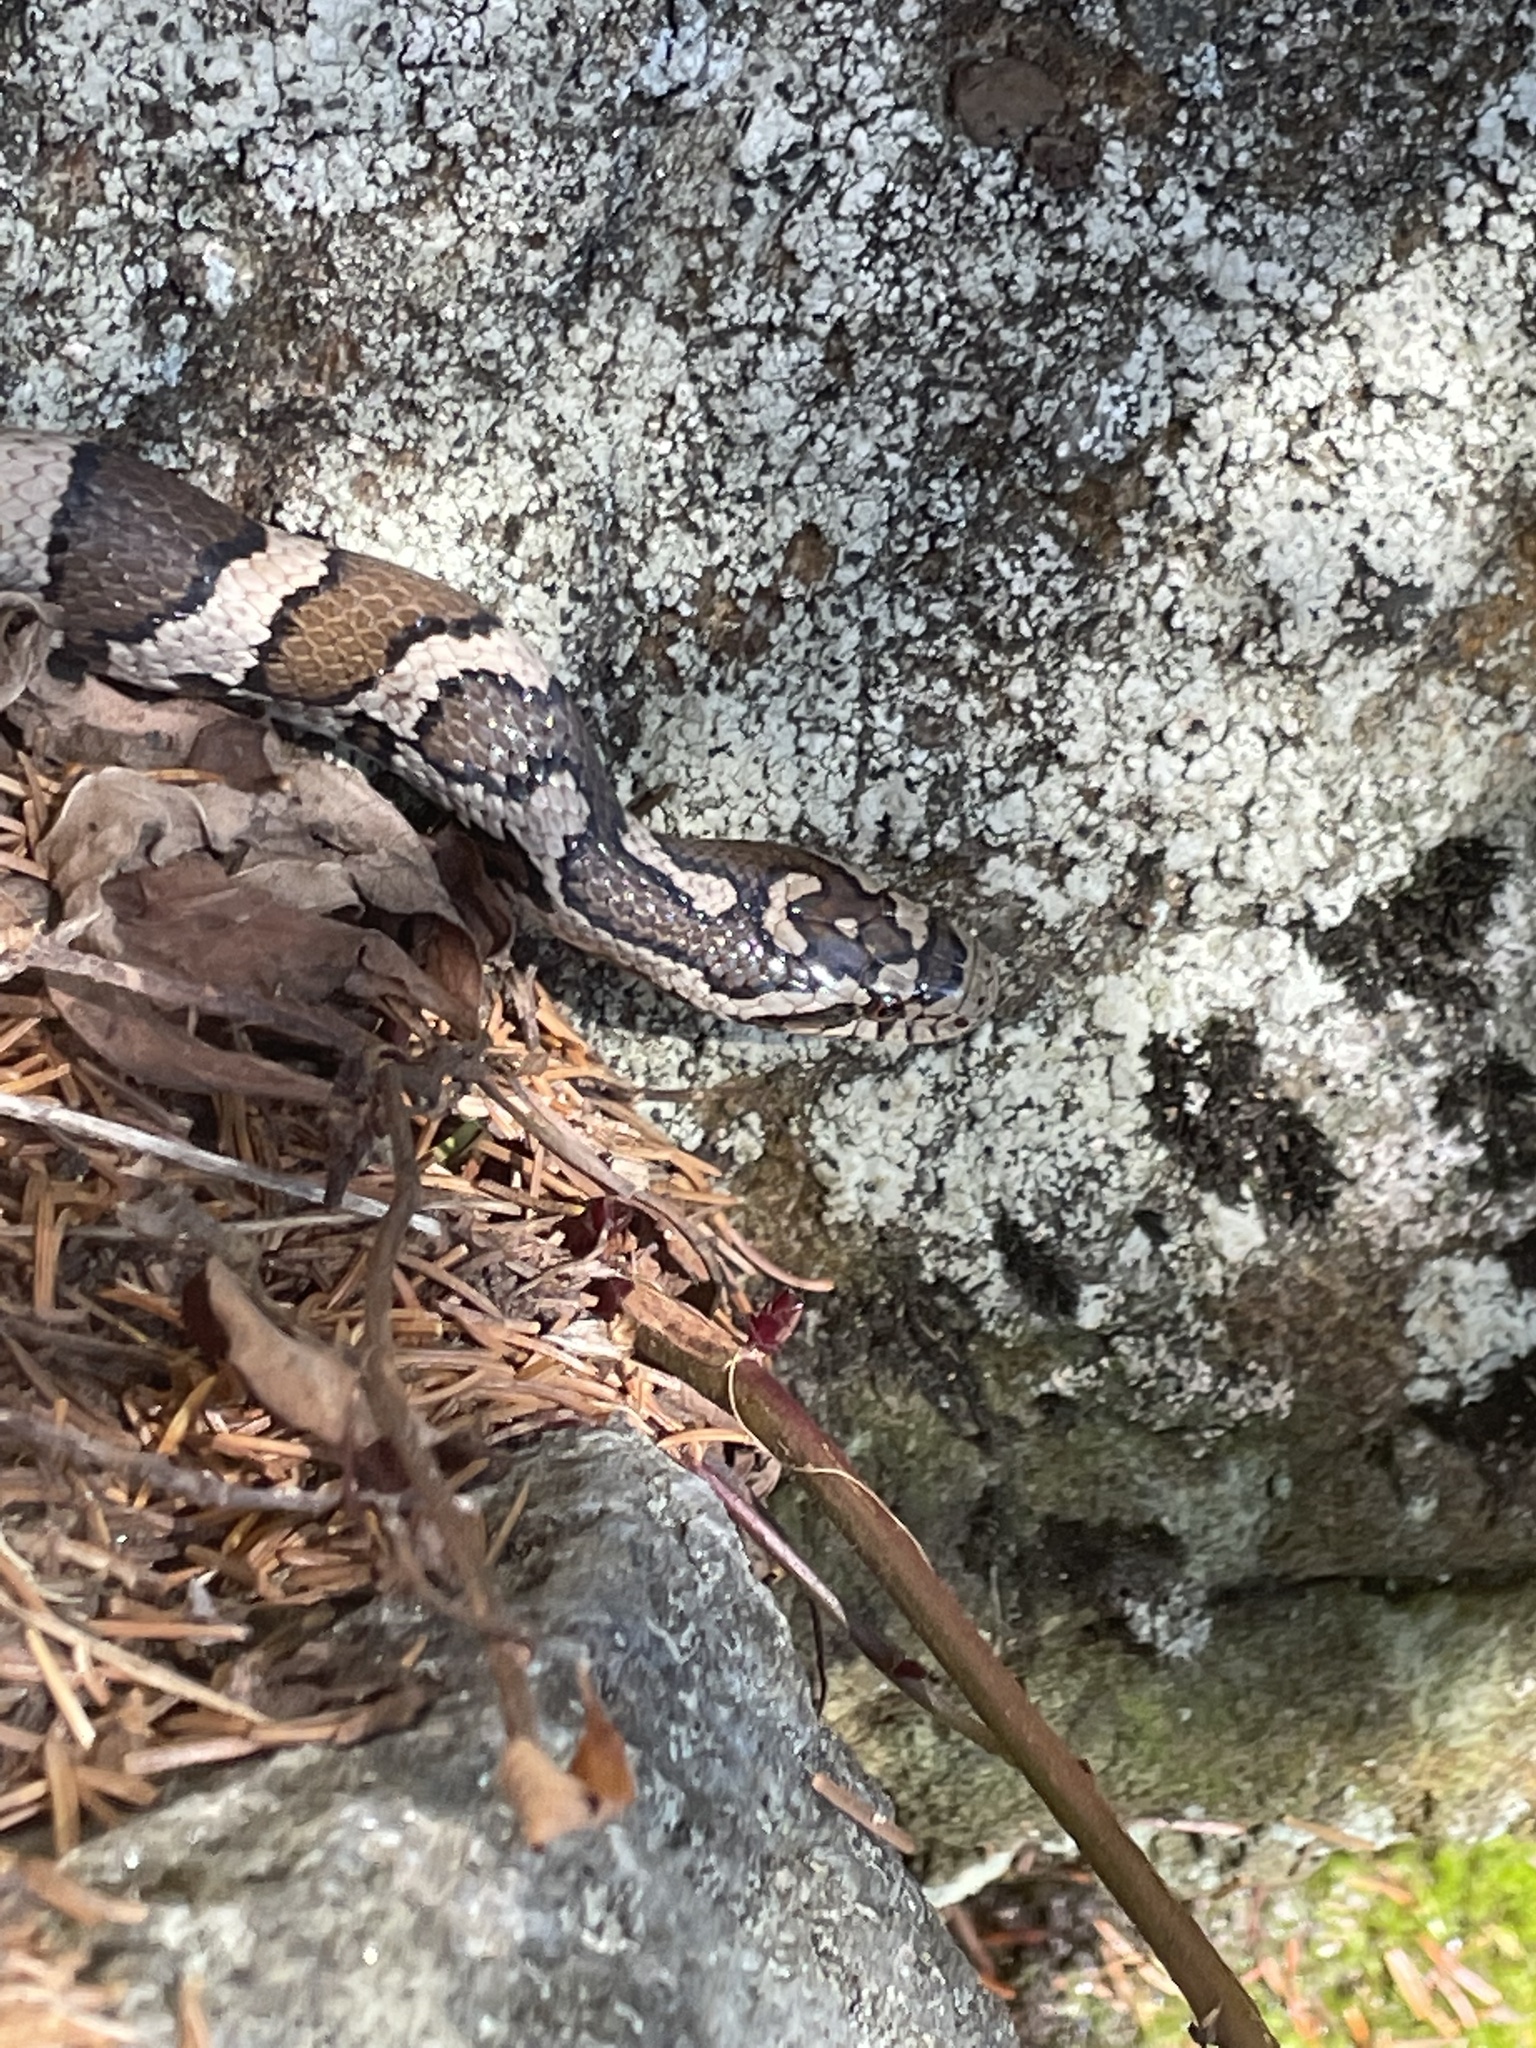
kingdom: Animalia
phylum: Chordata
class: Squamata
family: Colubridae
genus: Lampropeltis
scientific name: Lampropeltis triangulum
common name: Eastern milksnake
